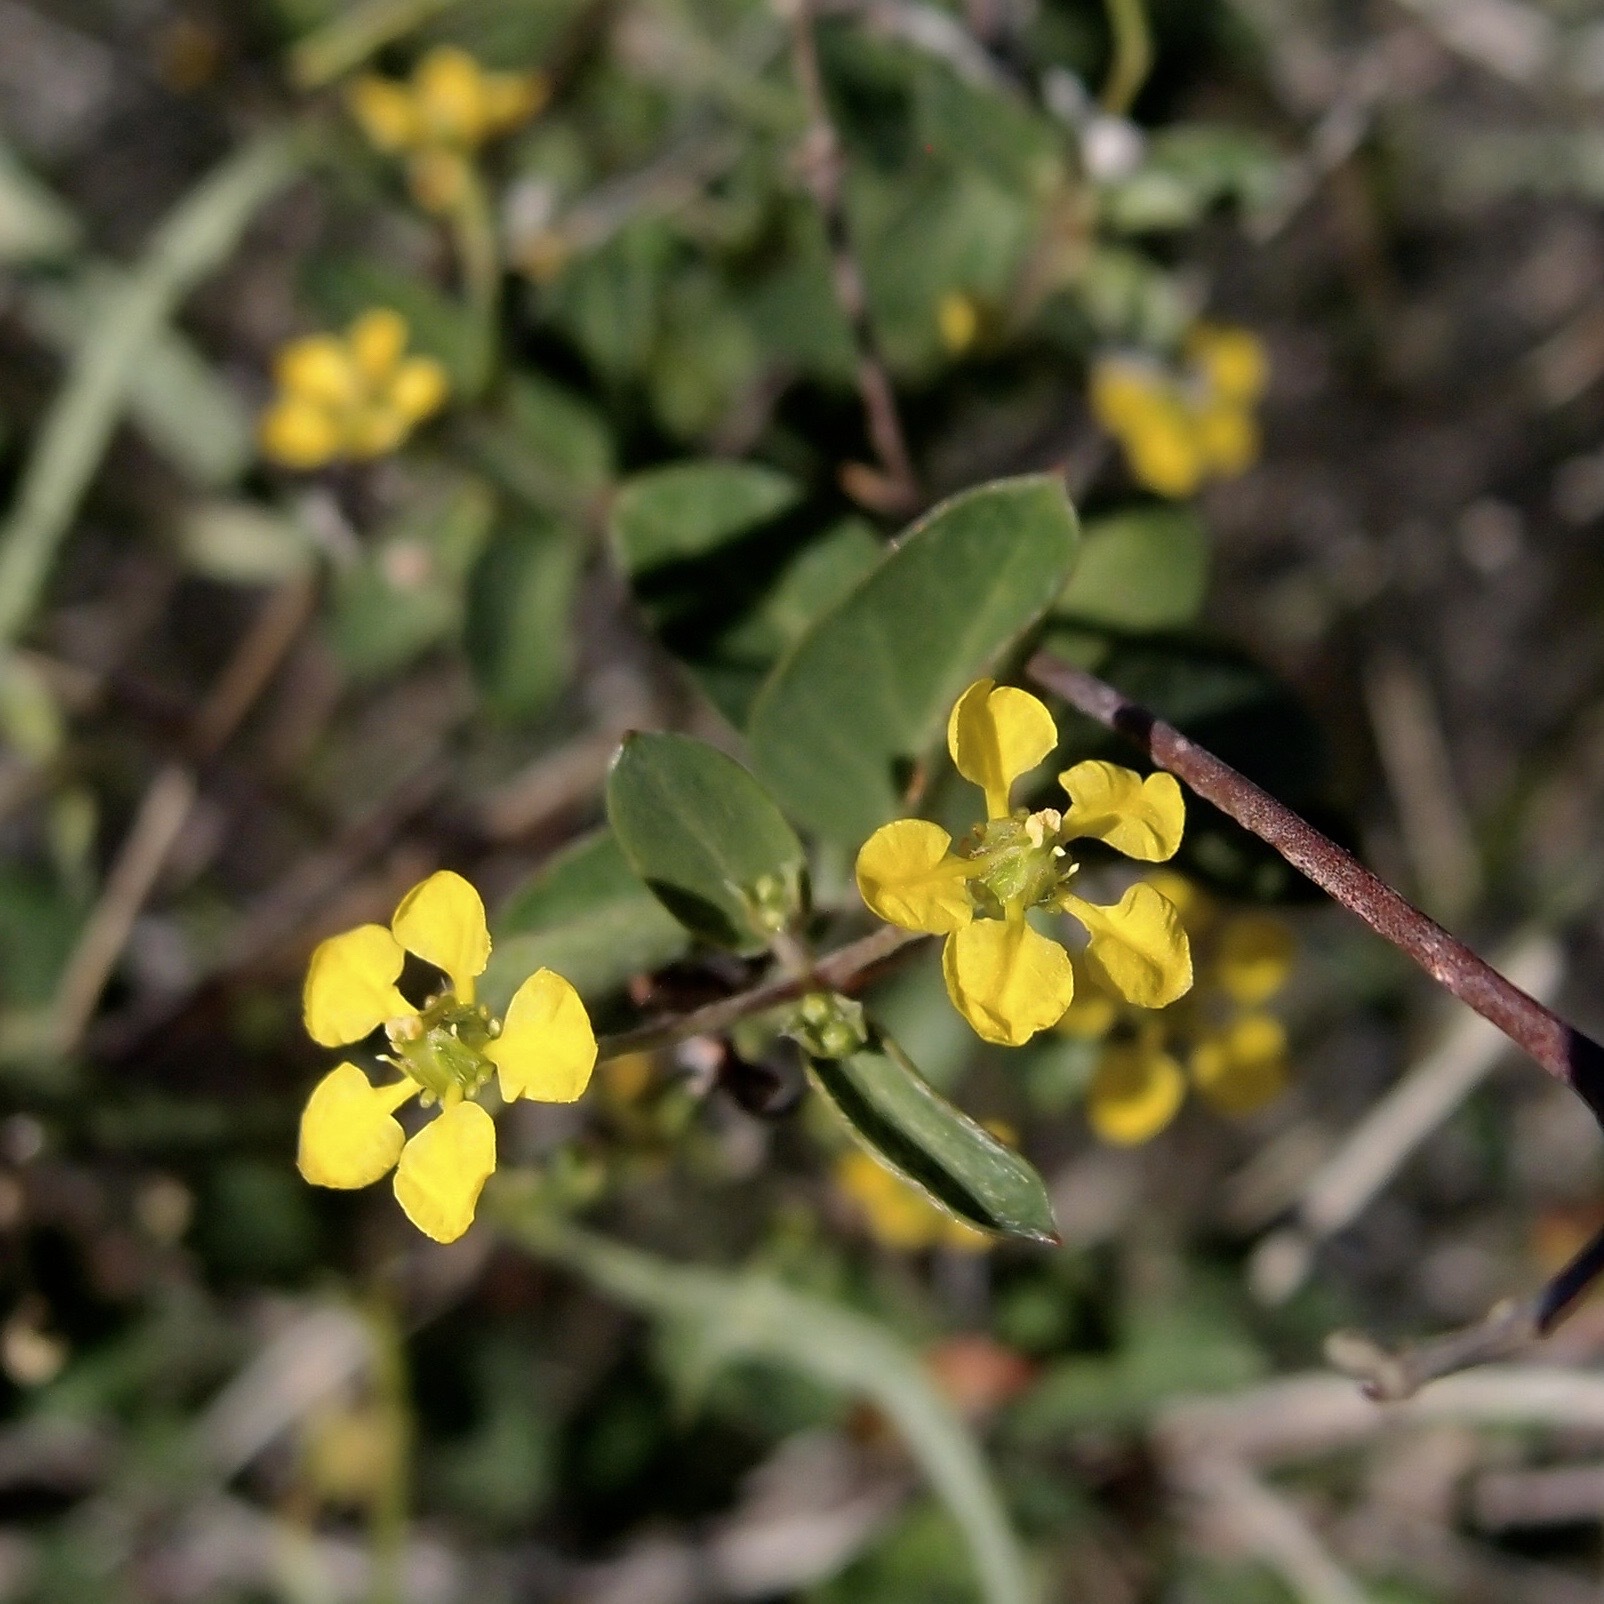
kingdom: Plantae
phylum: Tracheophyta
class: Magnoliopsida
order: Malpighiales
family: Malpighiaceae
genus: Cottsia
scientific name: Cottsia californica
